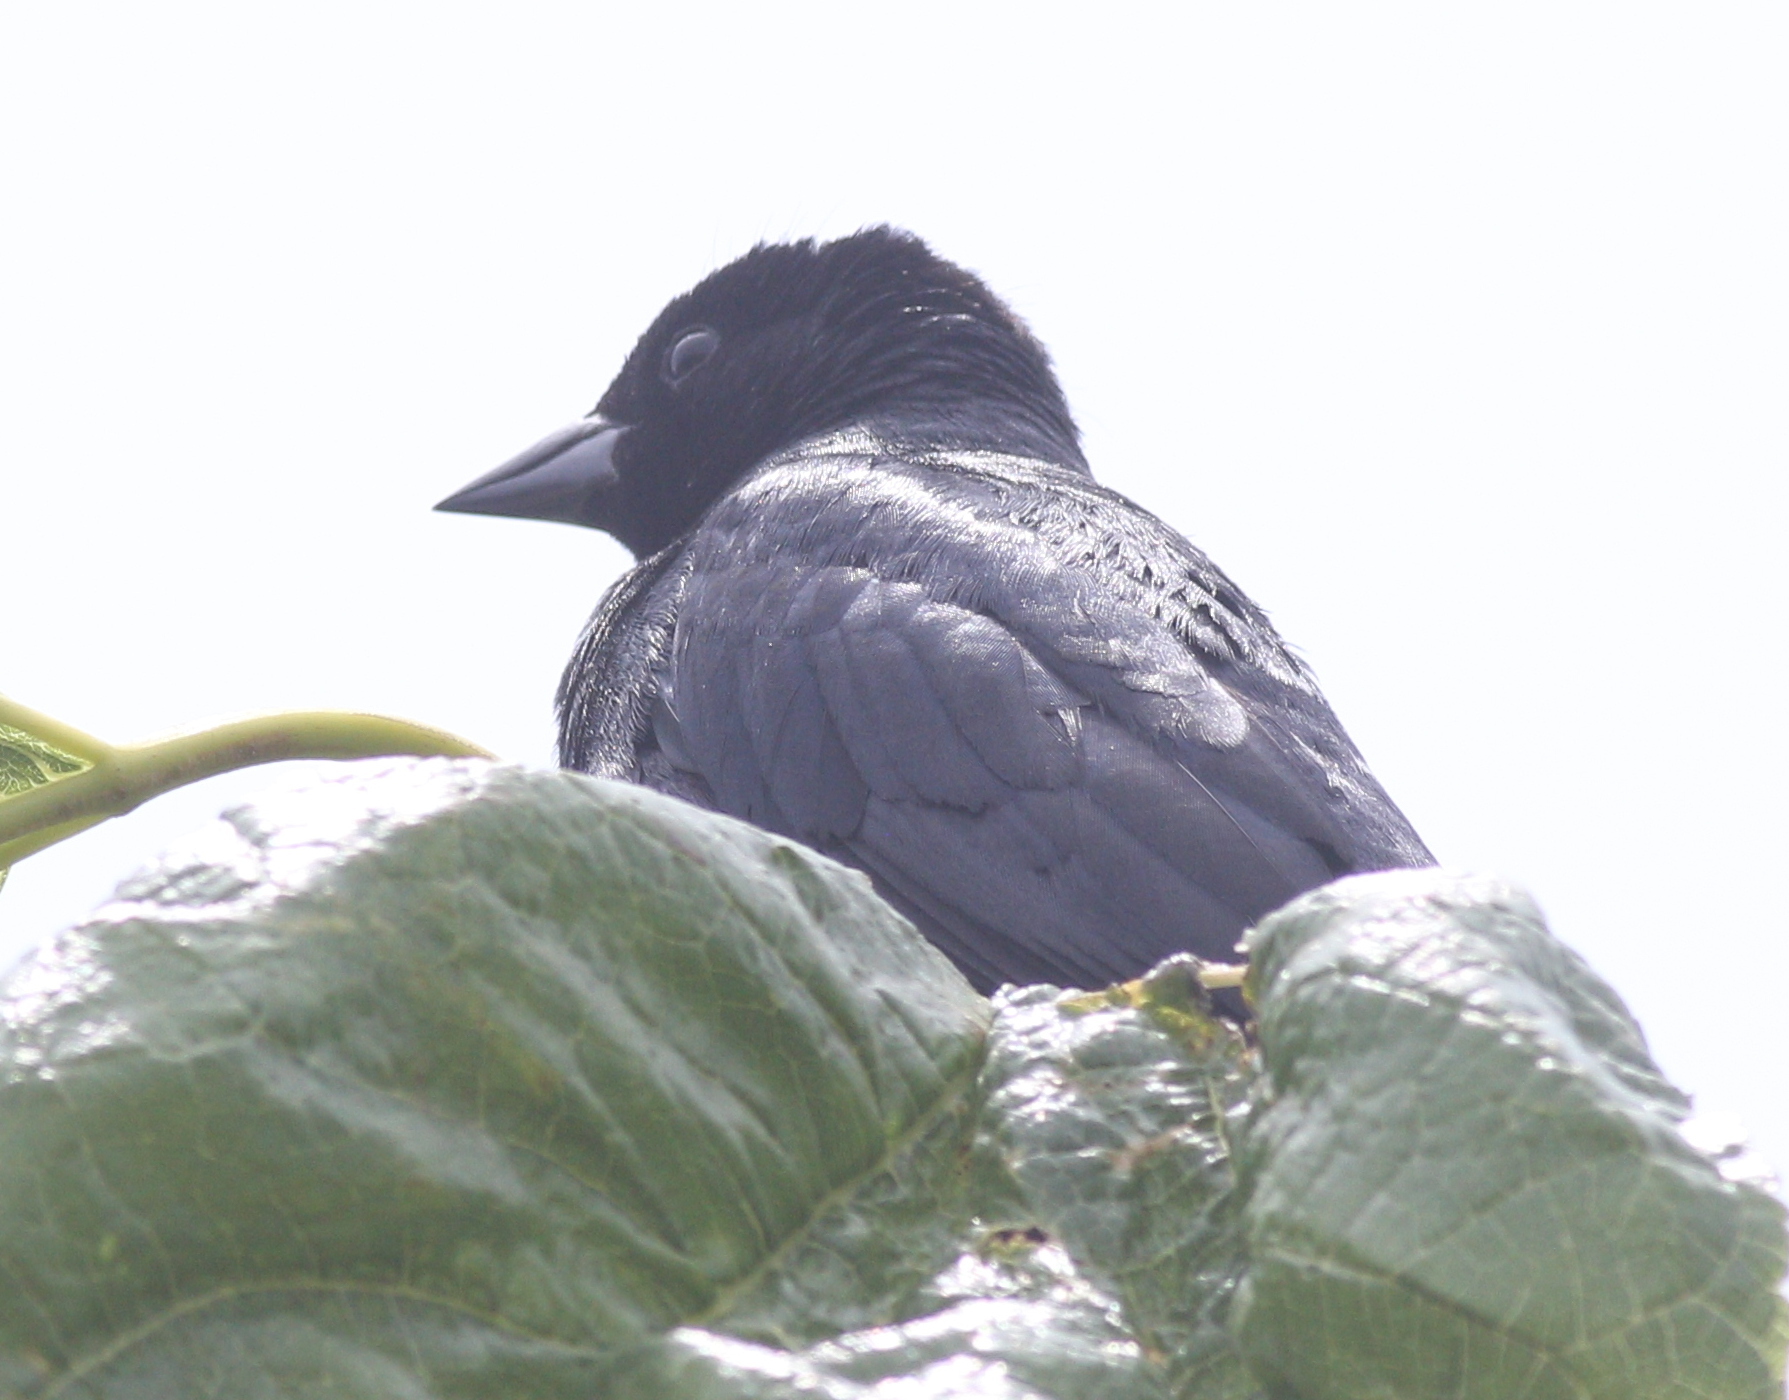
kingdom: Animalia
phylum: Chordata
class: Aves
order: Passeriformes
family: Icteridae
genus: Molothrus
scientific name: Molothrus bonariensis
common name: Shiny cowbird
